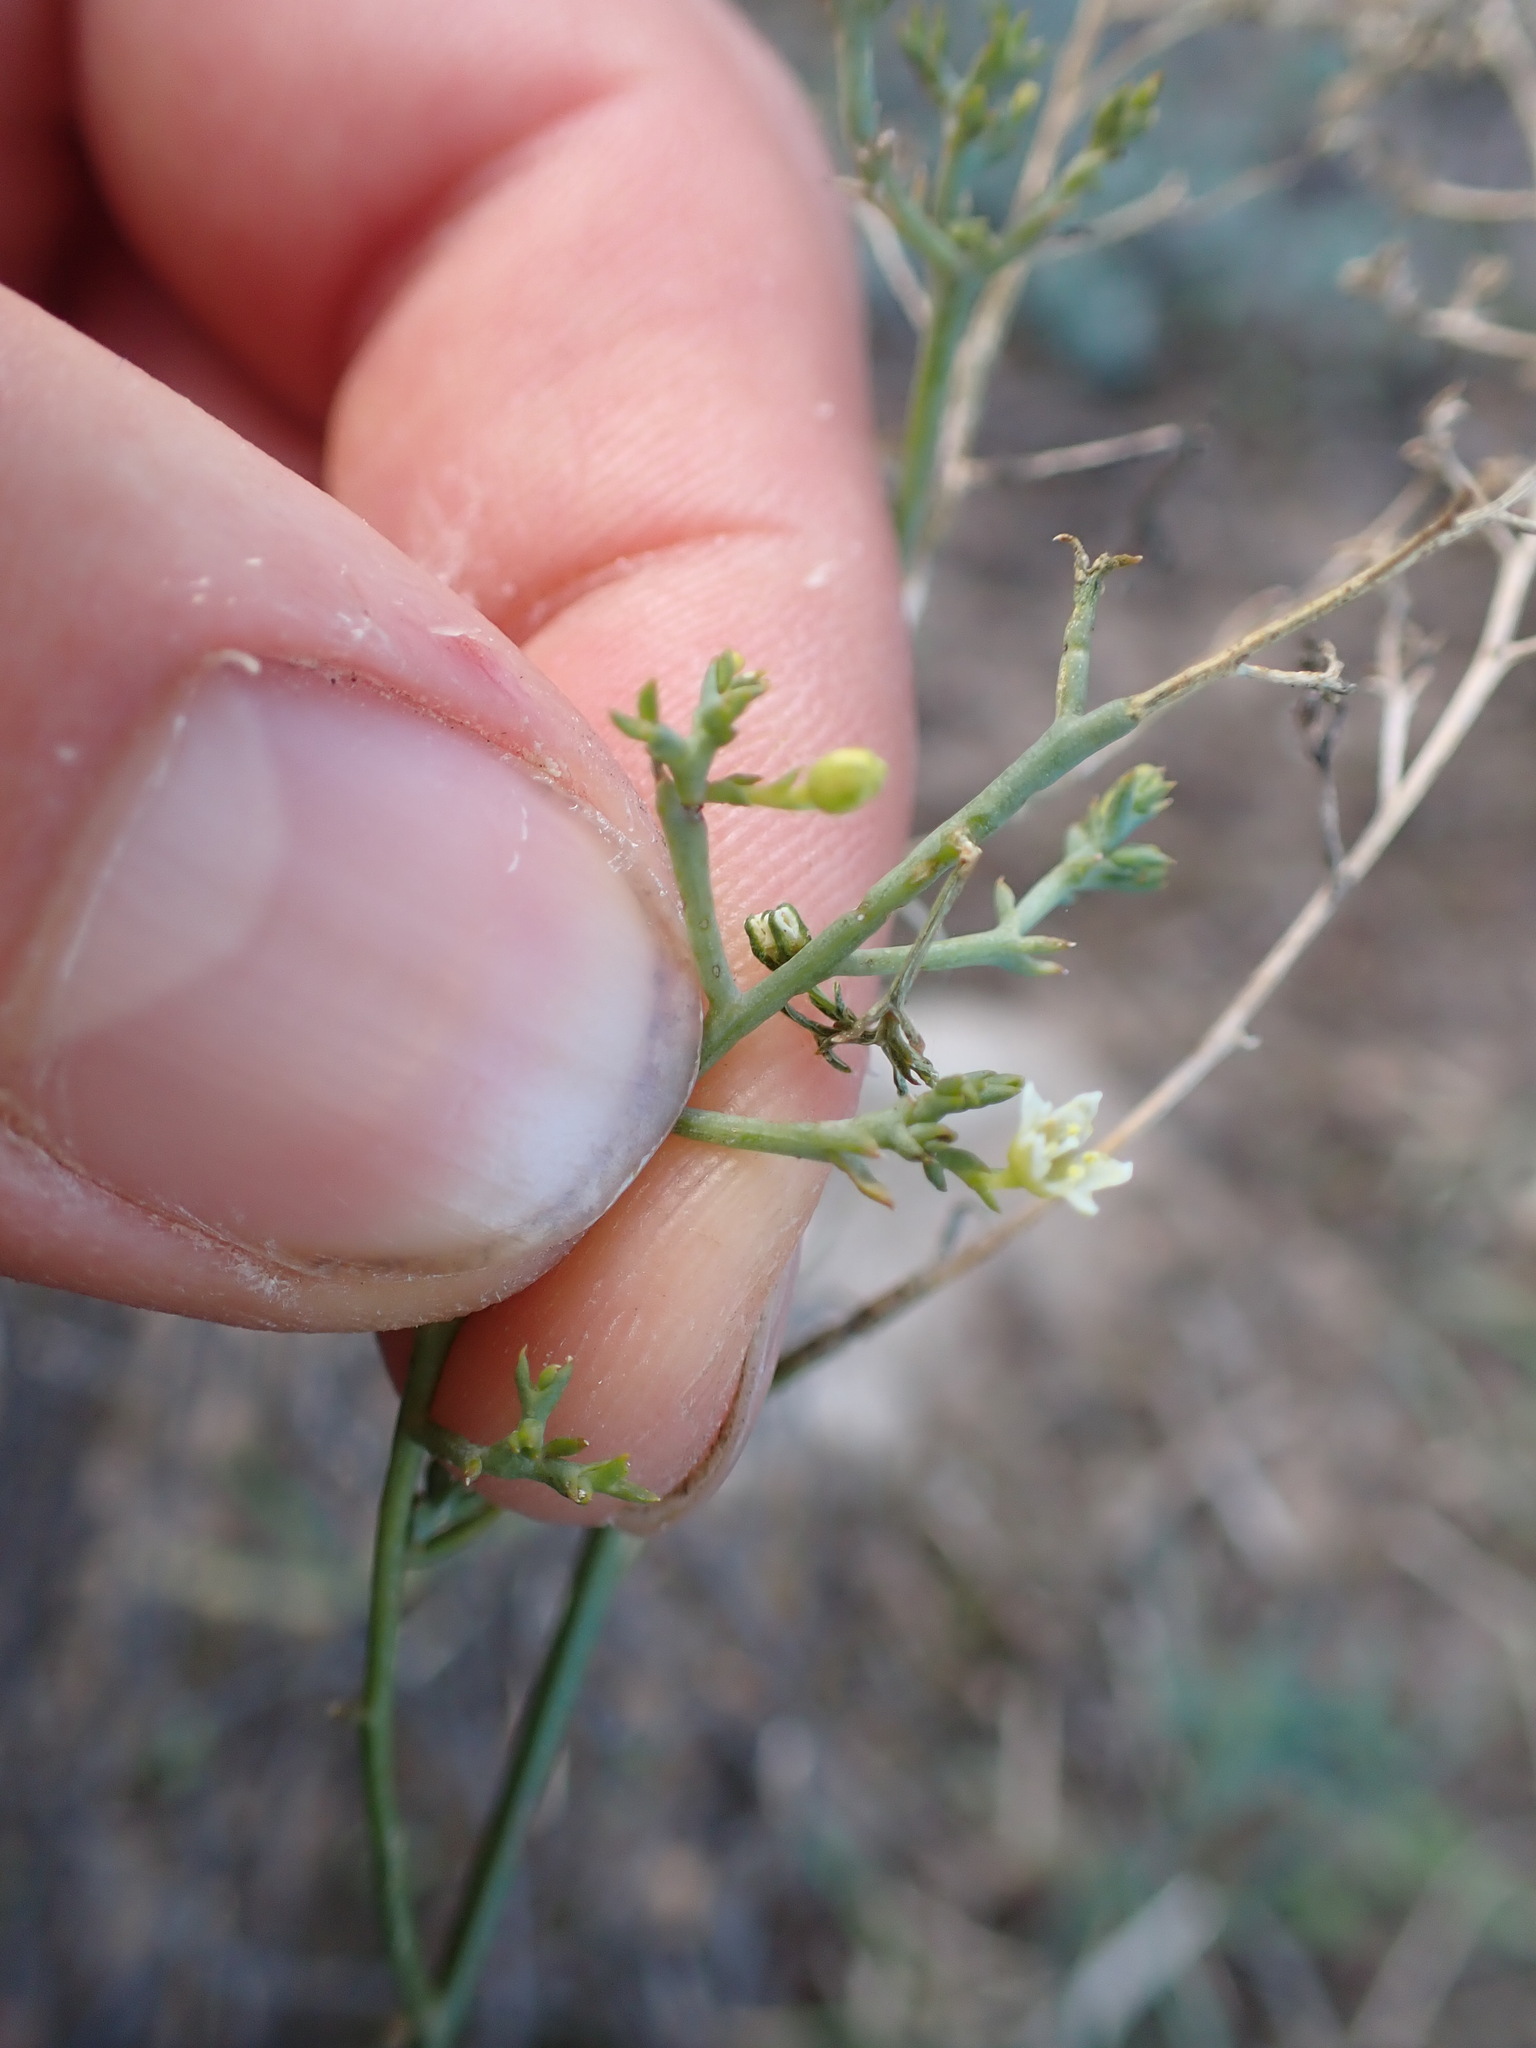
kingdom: Plantae
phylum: Tracheophyta
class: Magnoliopsida
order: Santalales
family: Thesiaceae
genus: Thesium
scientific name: Thesium divaricatum
